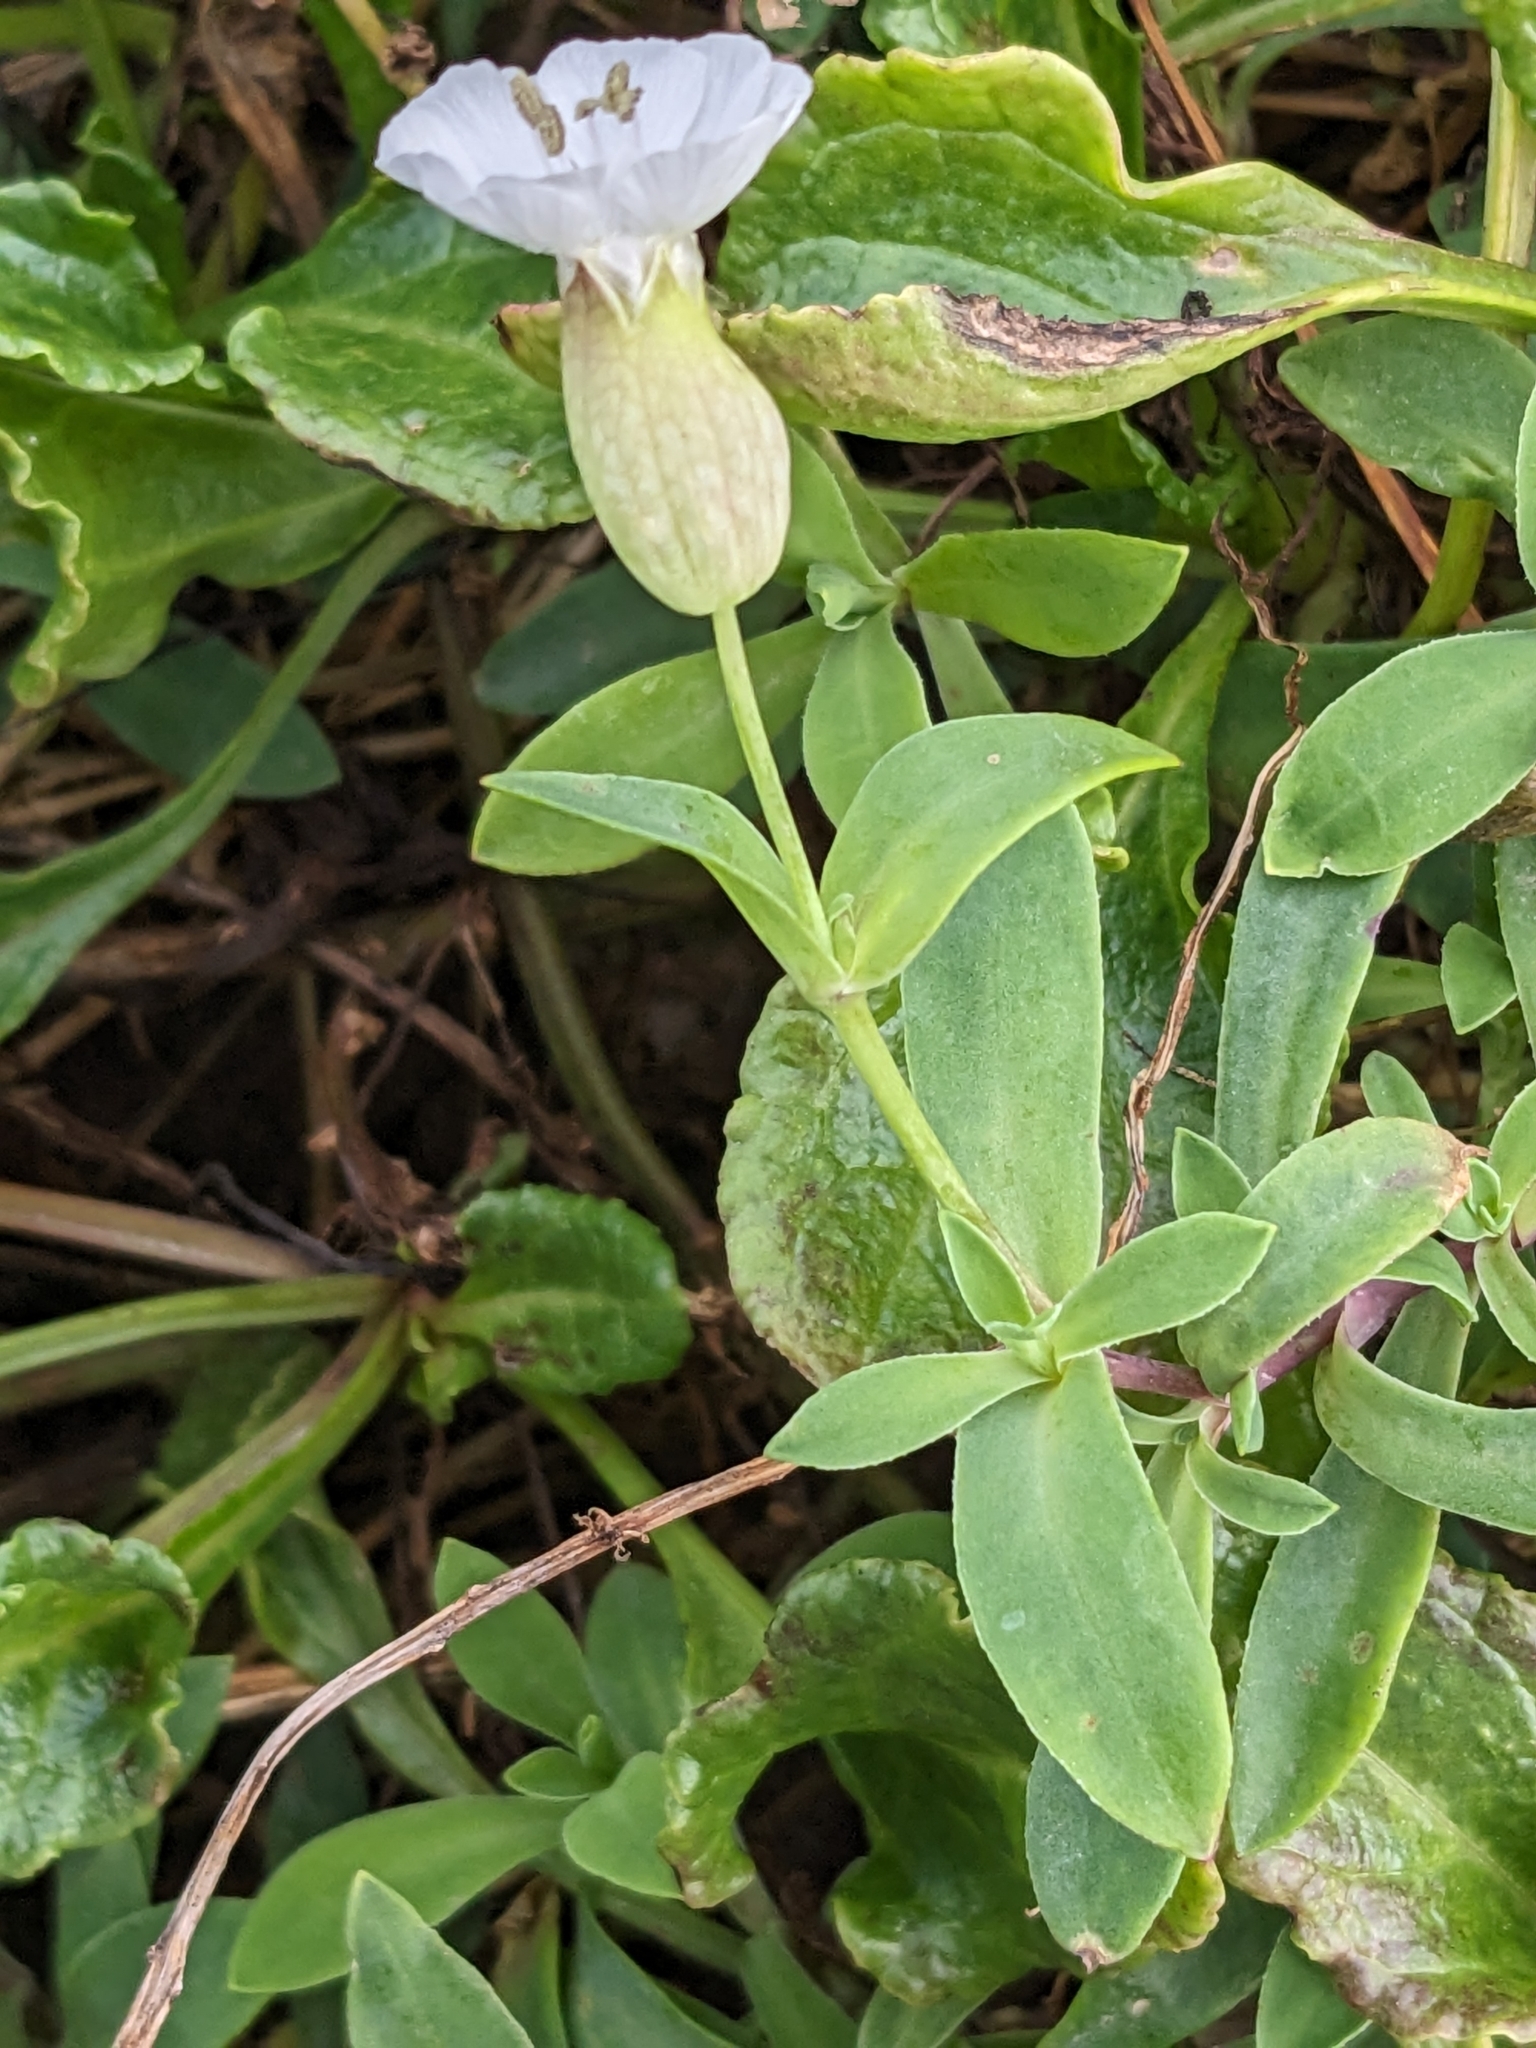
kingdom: Plantae
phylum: Tracheophyta
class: Magnoliopsida
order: Caryophyllales
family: Caryophyllaceae
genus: Silene
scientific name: Silene uniflora
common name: Sea campion
